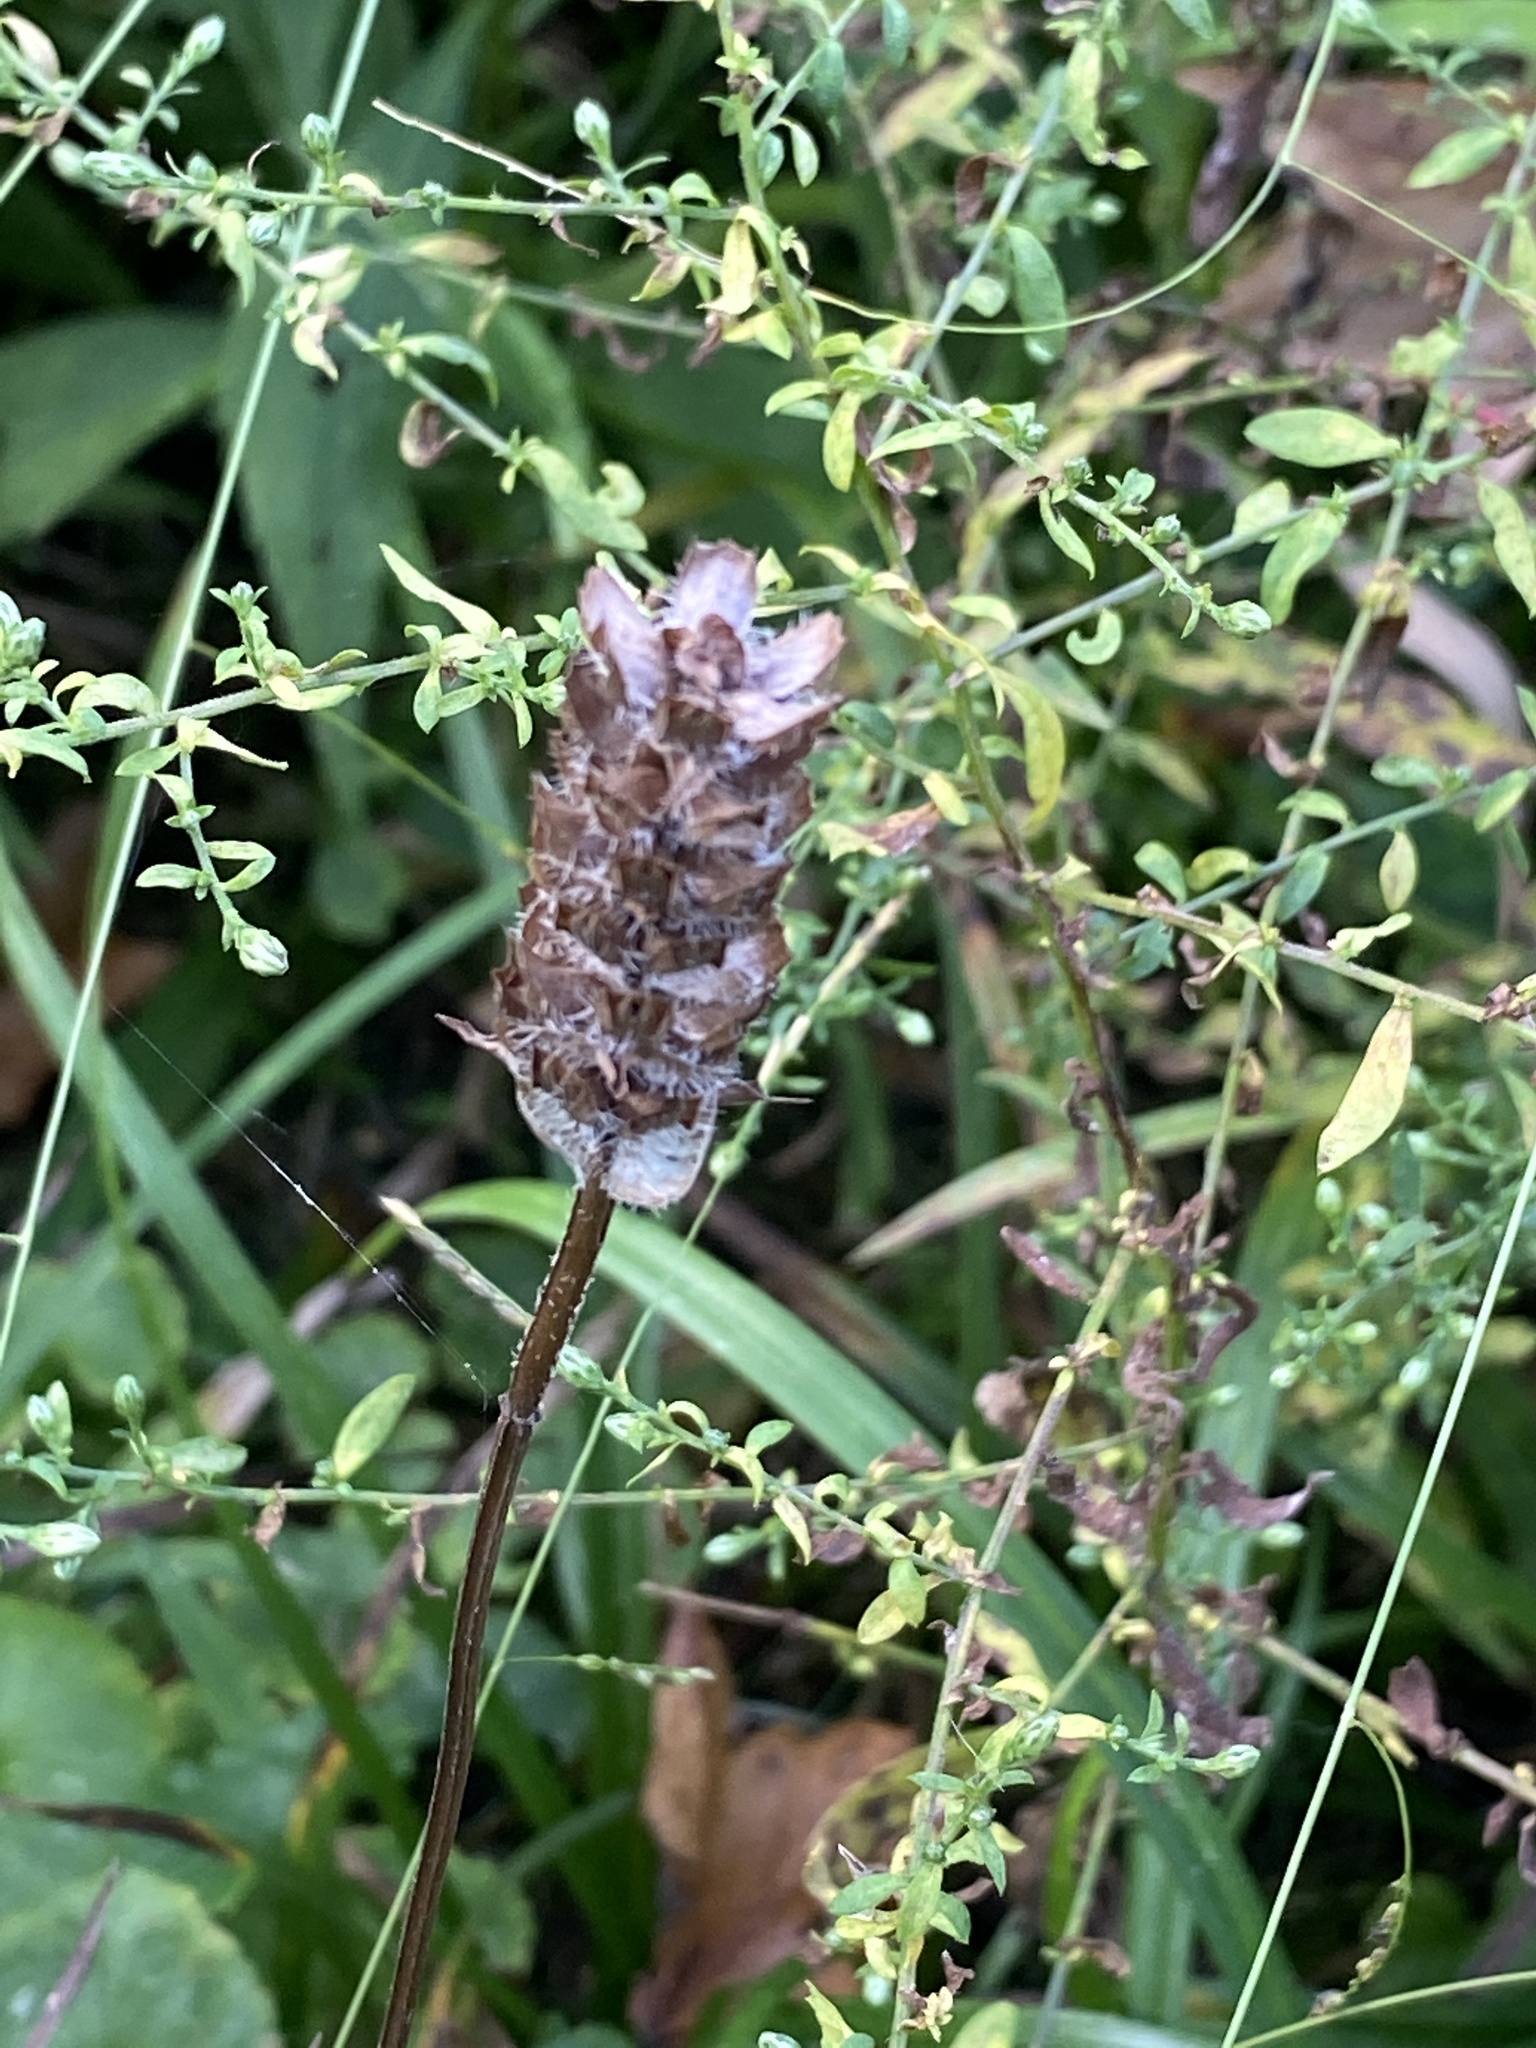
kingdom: Plantae
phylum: Tracheophyta
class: Magnoliopsida
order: Lamiales
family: Lamiaceae
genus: Prunella
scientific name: Prunella vulgaris
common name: Heal-all
